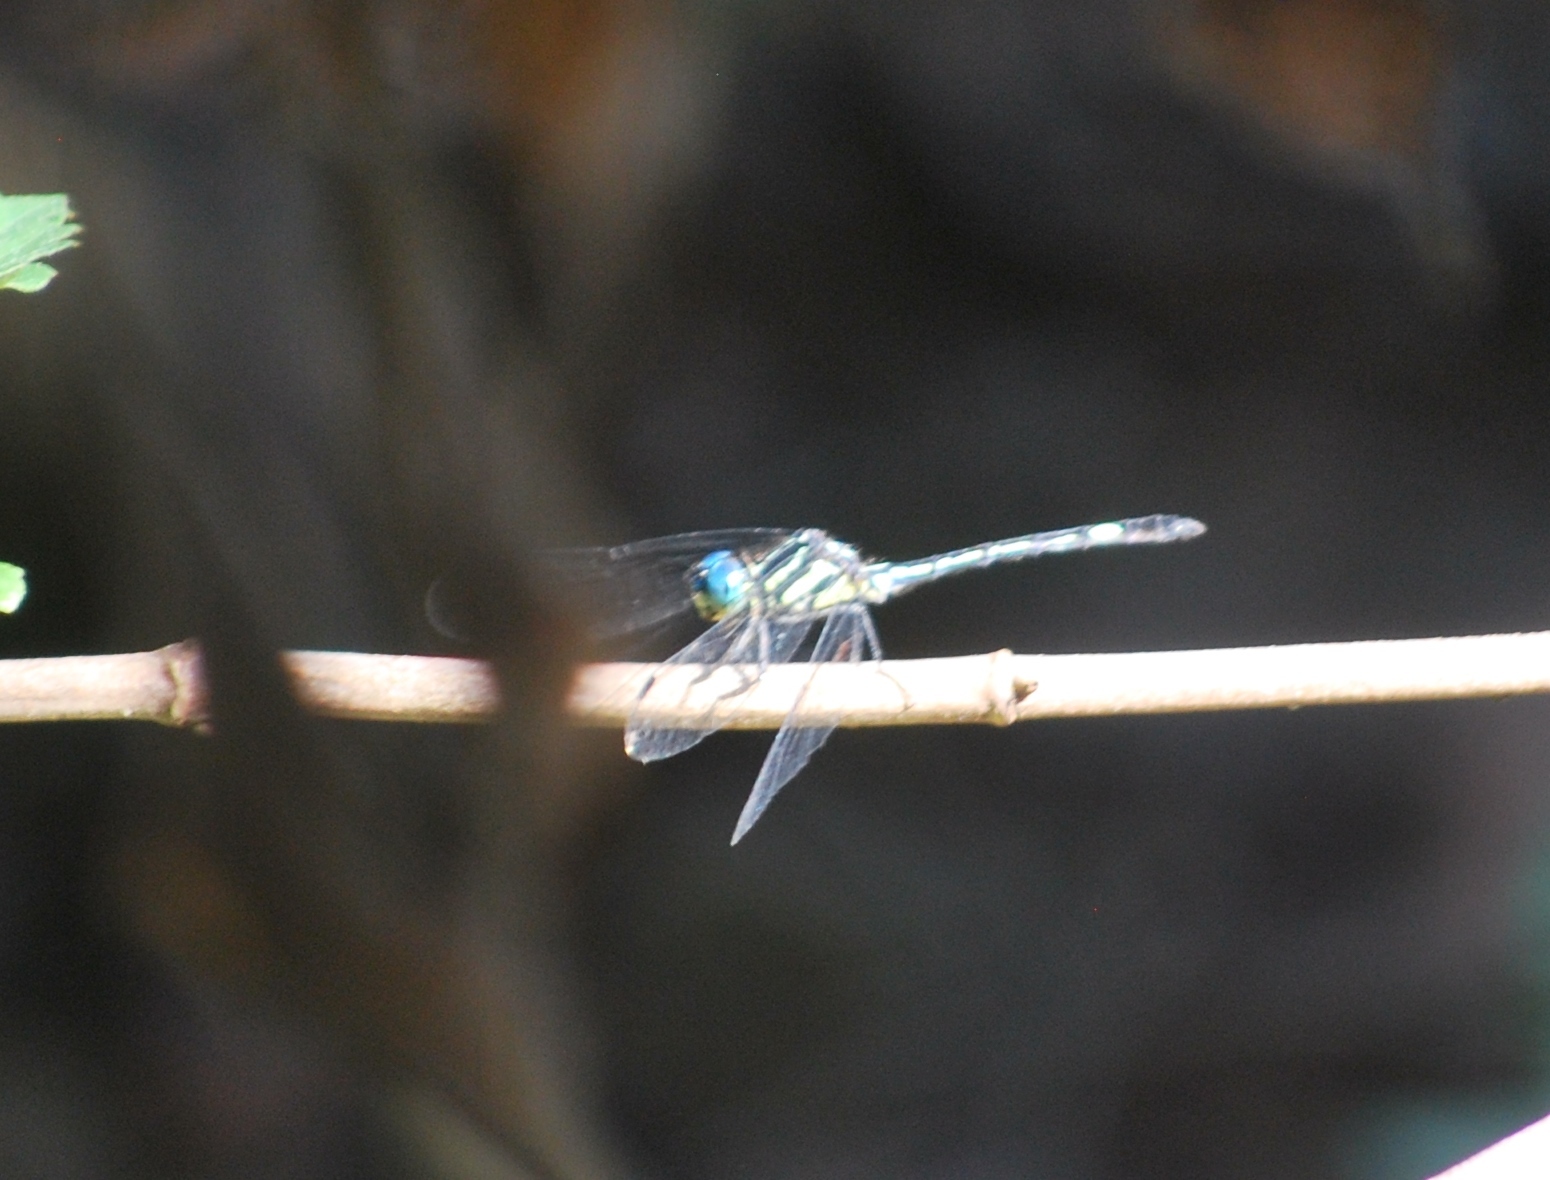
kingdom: Animalia
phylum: Arthropoda
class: Insecta
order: Odonata
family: Libellulidae
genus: Hylaeothemis
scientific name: Hylaeothemis apicalis
